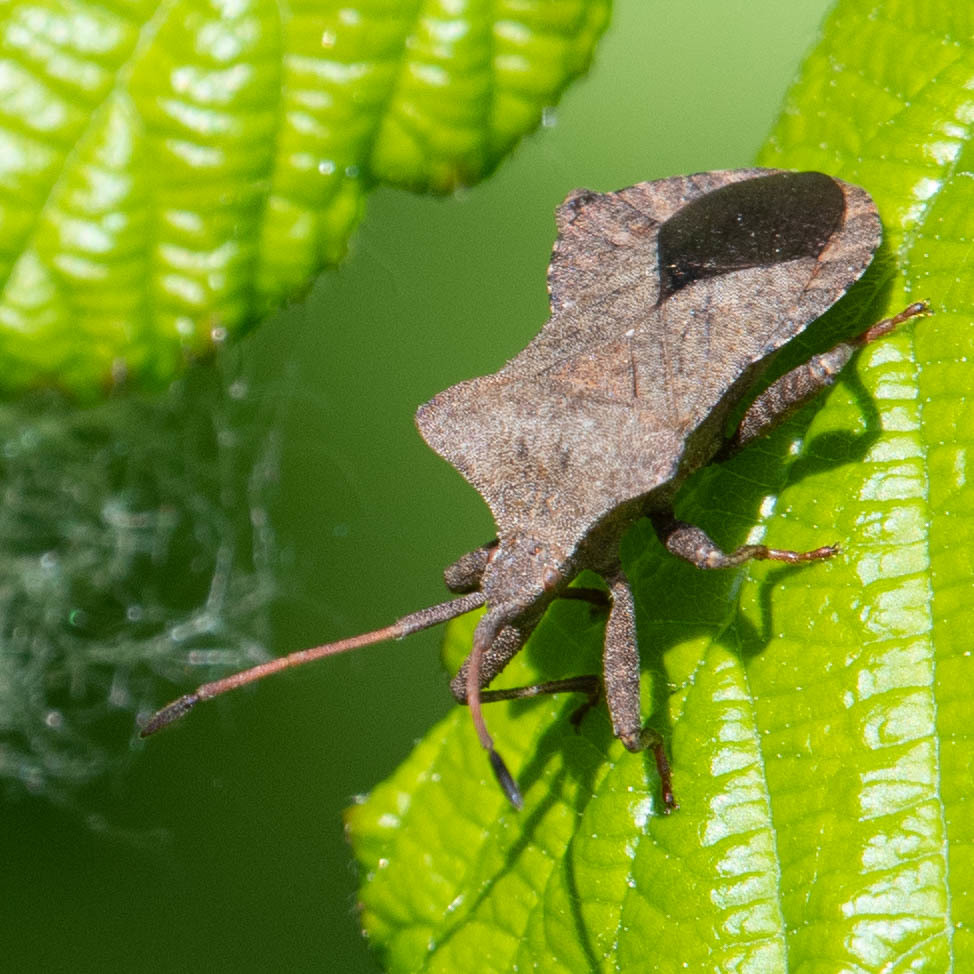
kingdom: Animalia
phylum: Arthropoda
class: Insecta
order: Hemiptera
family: Coreidae
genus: Coreus
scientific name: Coreus marginatus
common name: Dock bug
